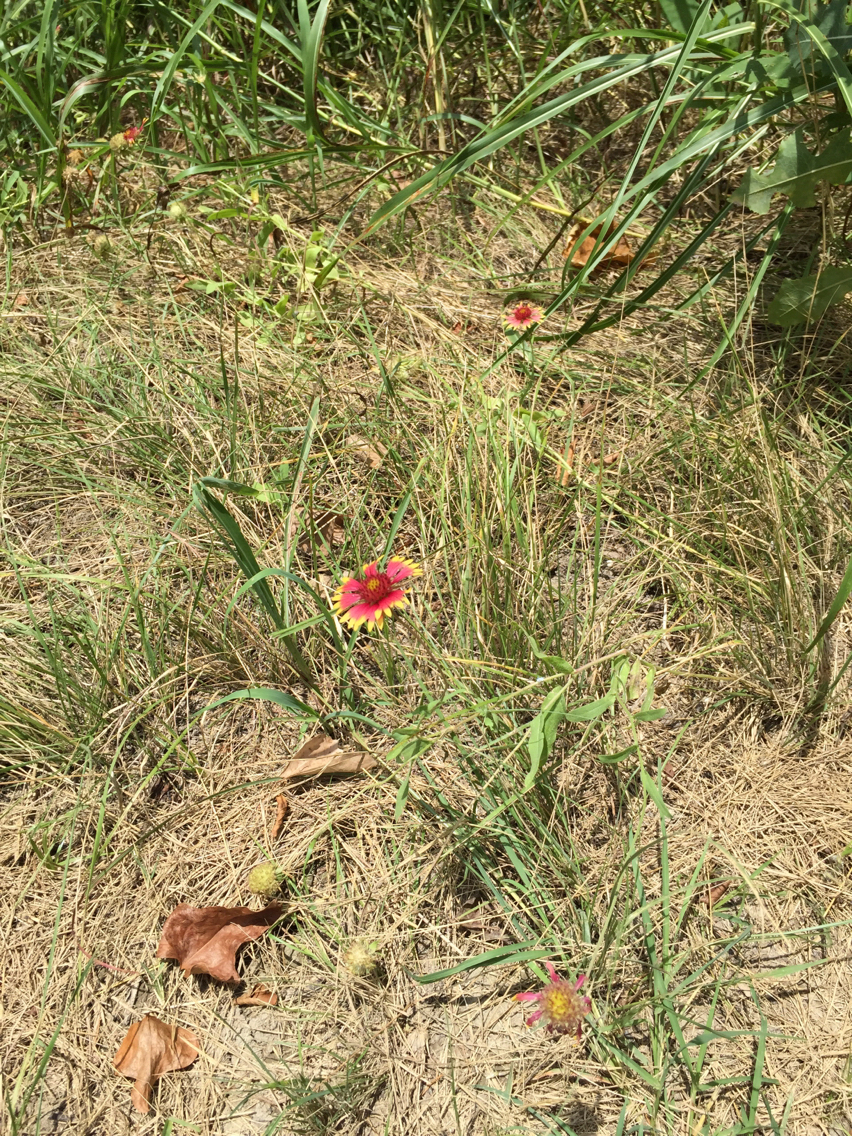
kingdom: Plantae
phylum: Tracheophyta
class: Magnoliopsida
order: Asterales
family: Asteraceae
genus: Gaillardia
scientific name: Gaillardia pulchella
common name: Firewheel
